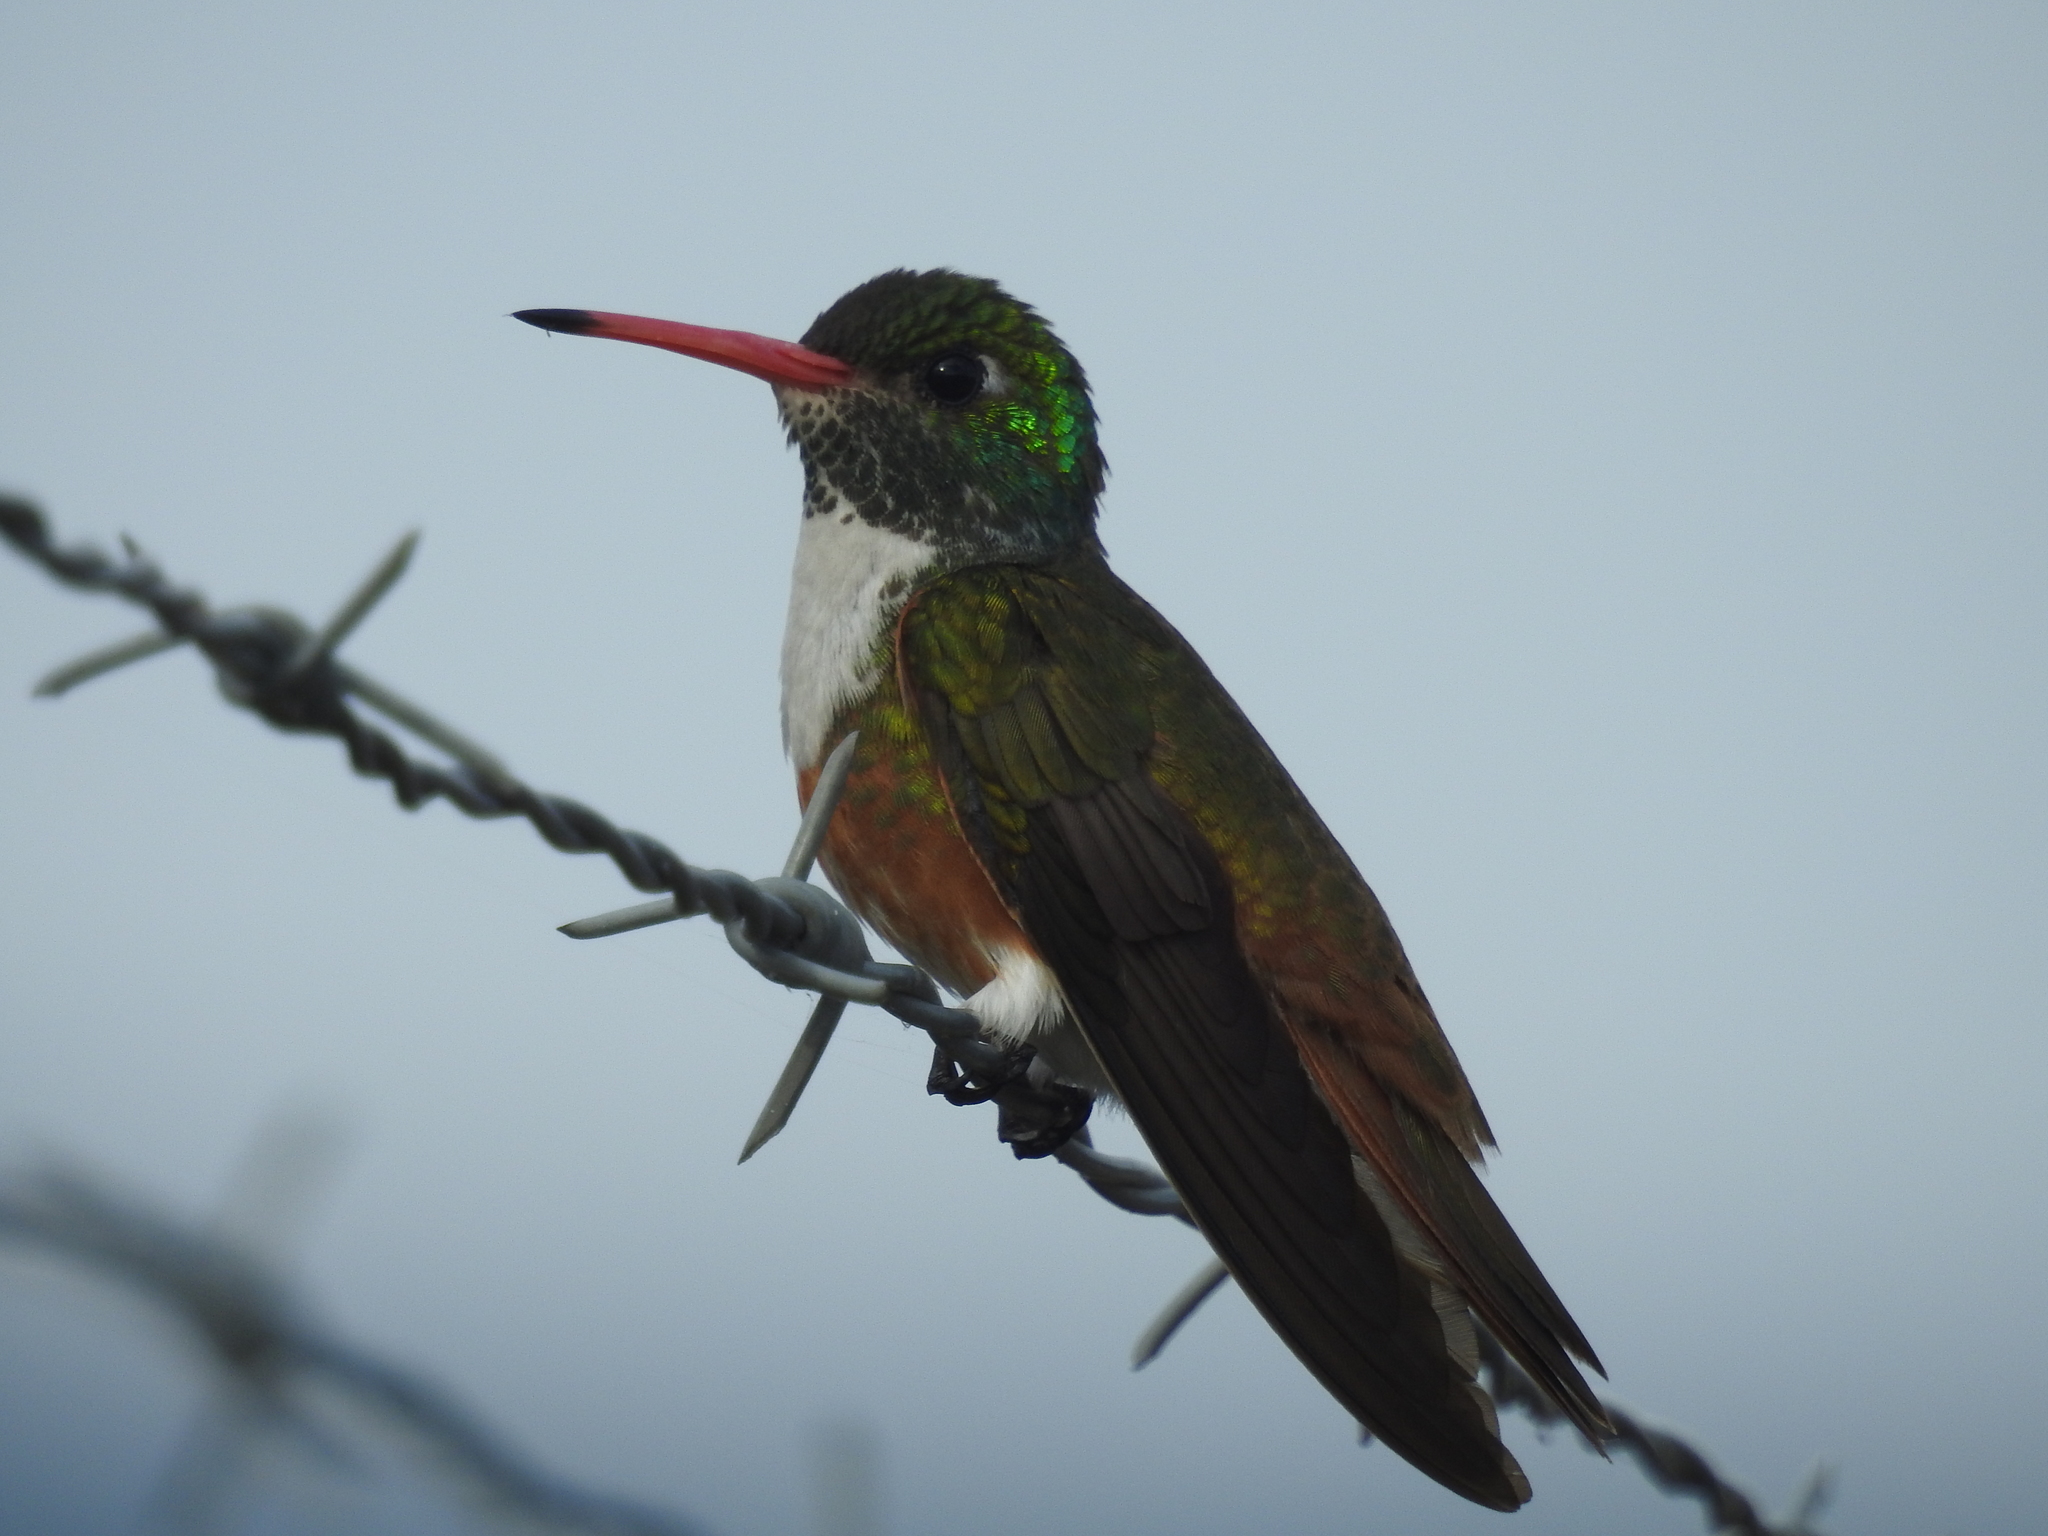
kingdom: Animalia
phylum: Chordata
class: Aves
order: Apodiformes
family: Trochilidae
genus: Amazilis
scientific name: Amazilis amazilia
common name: Amazilia hummingbird
